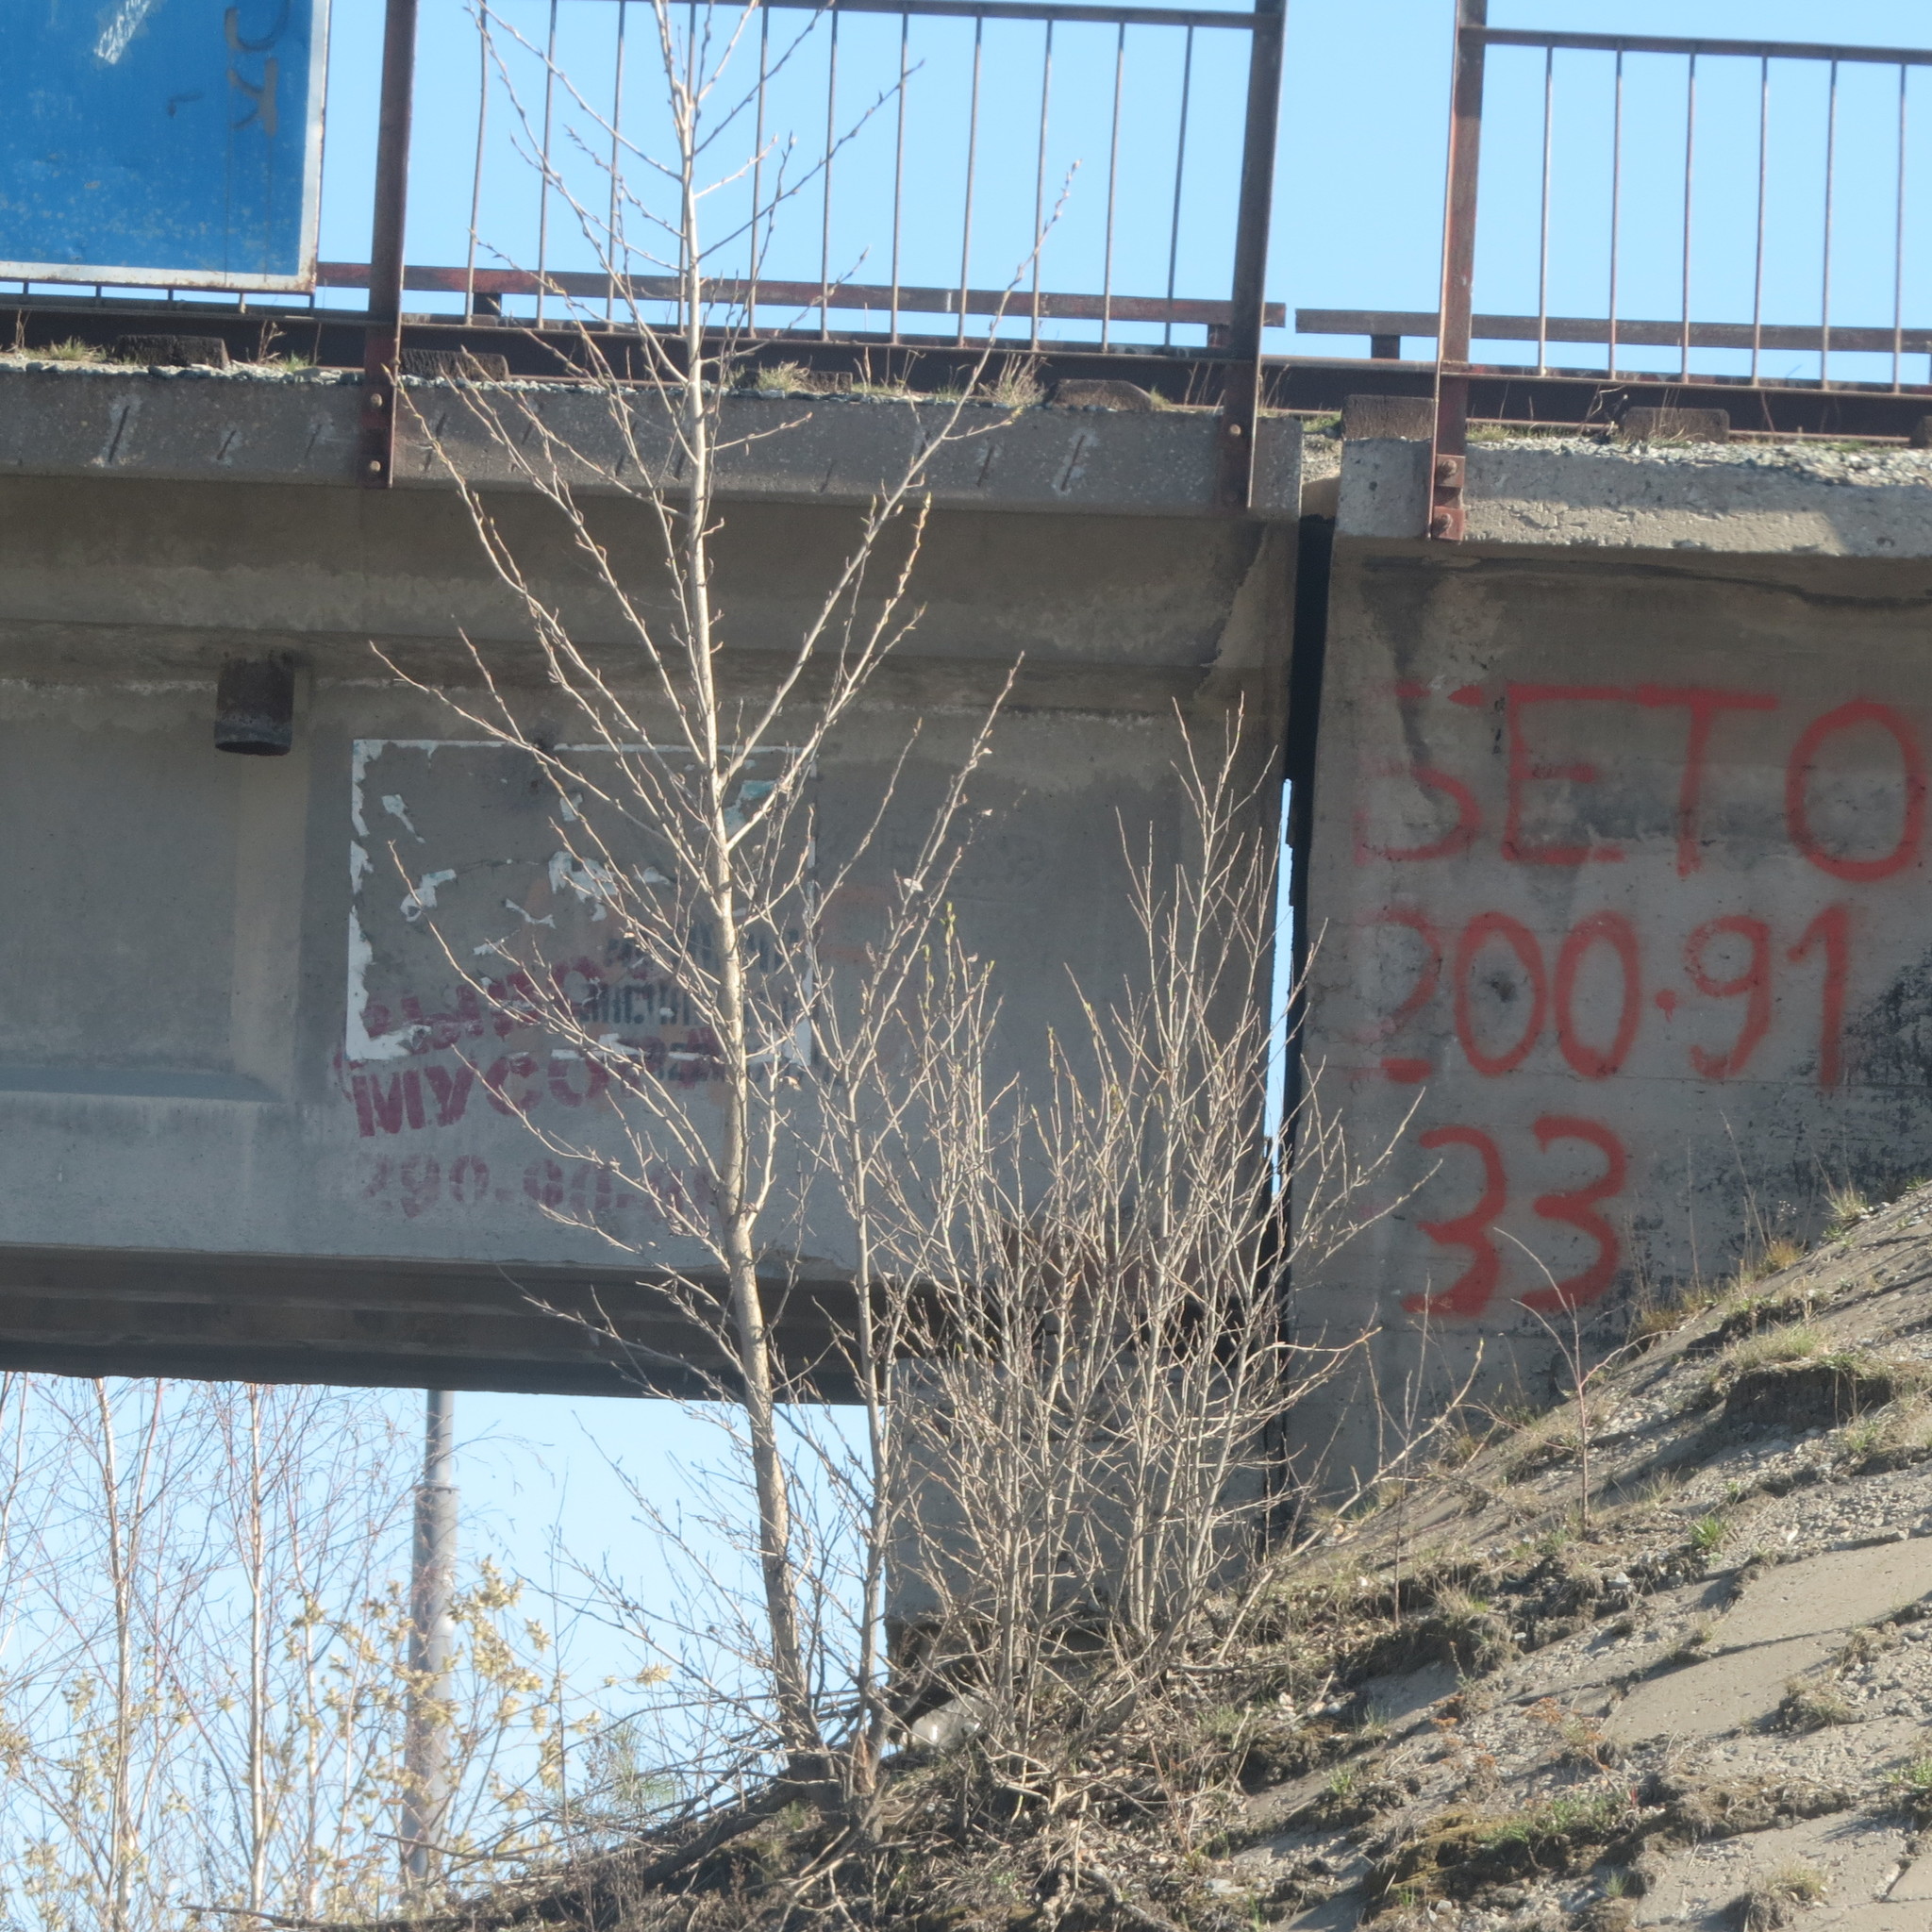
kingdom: Plantae
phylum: Tracheophyta
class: Magnoliopsida
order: Rosales
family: Ulmaceae
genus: Ulmus
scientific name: Ulmus pumila
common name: Siberian elm
